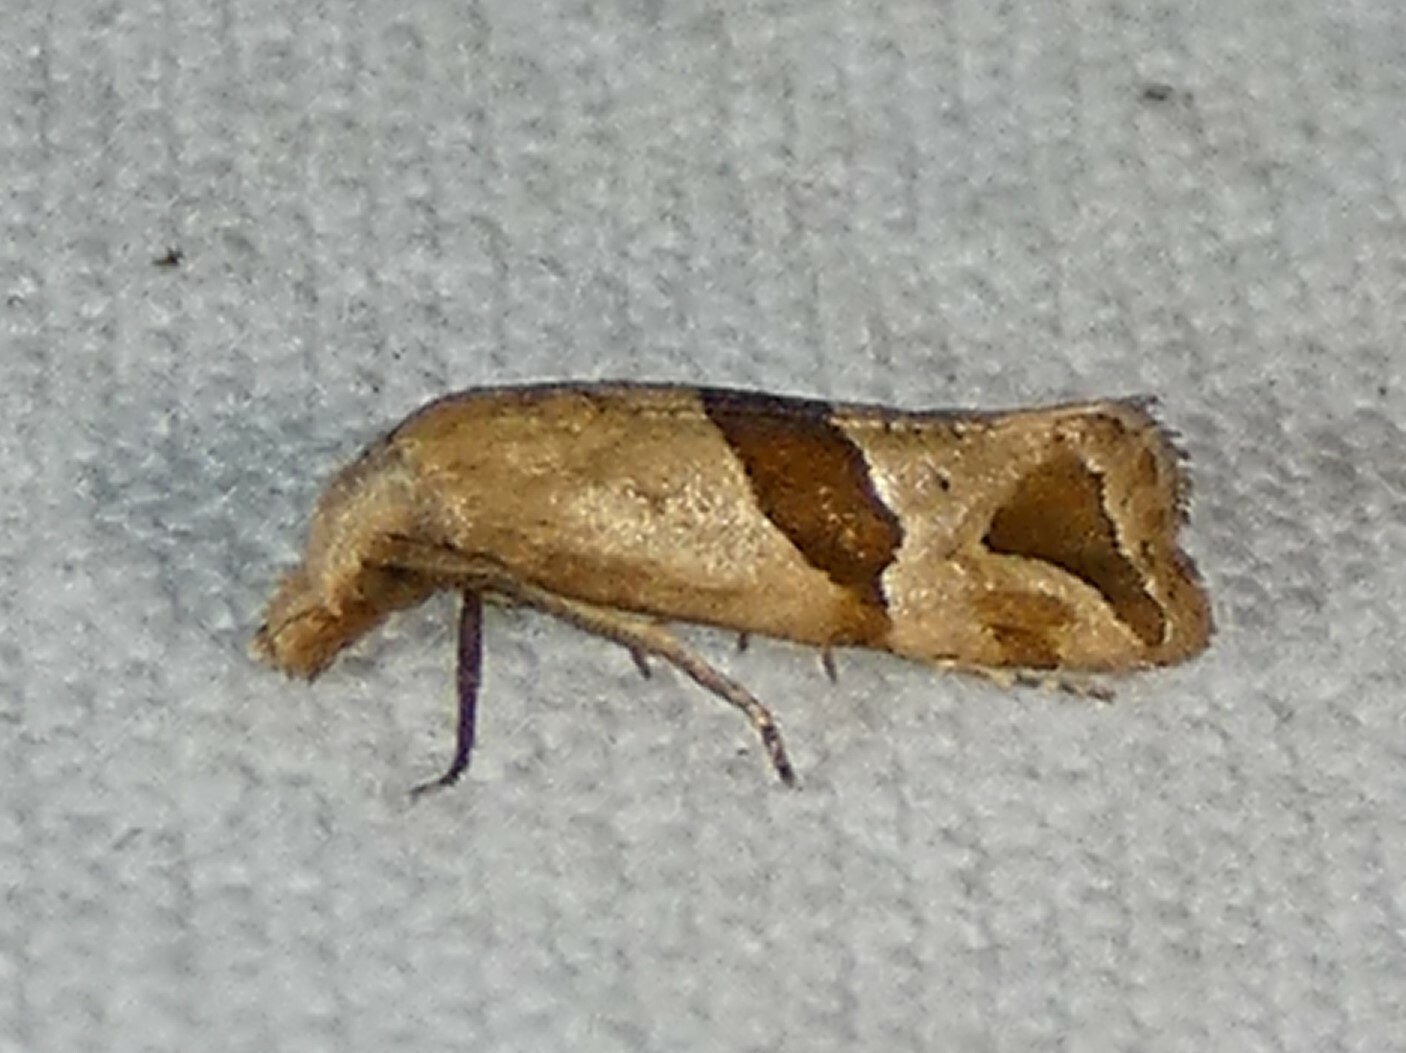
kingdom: Animalia
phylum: Arthropoda
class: Insecta
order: Lepidoptera
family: Tortricidae
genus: Eugnosta
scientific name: Eugnosta sartana
